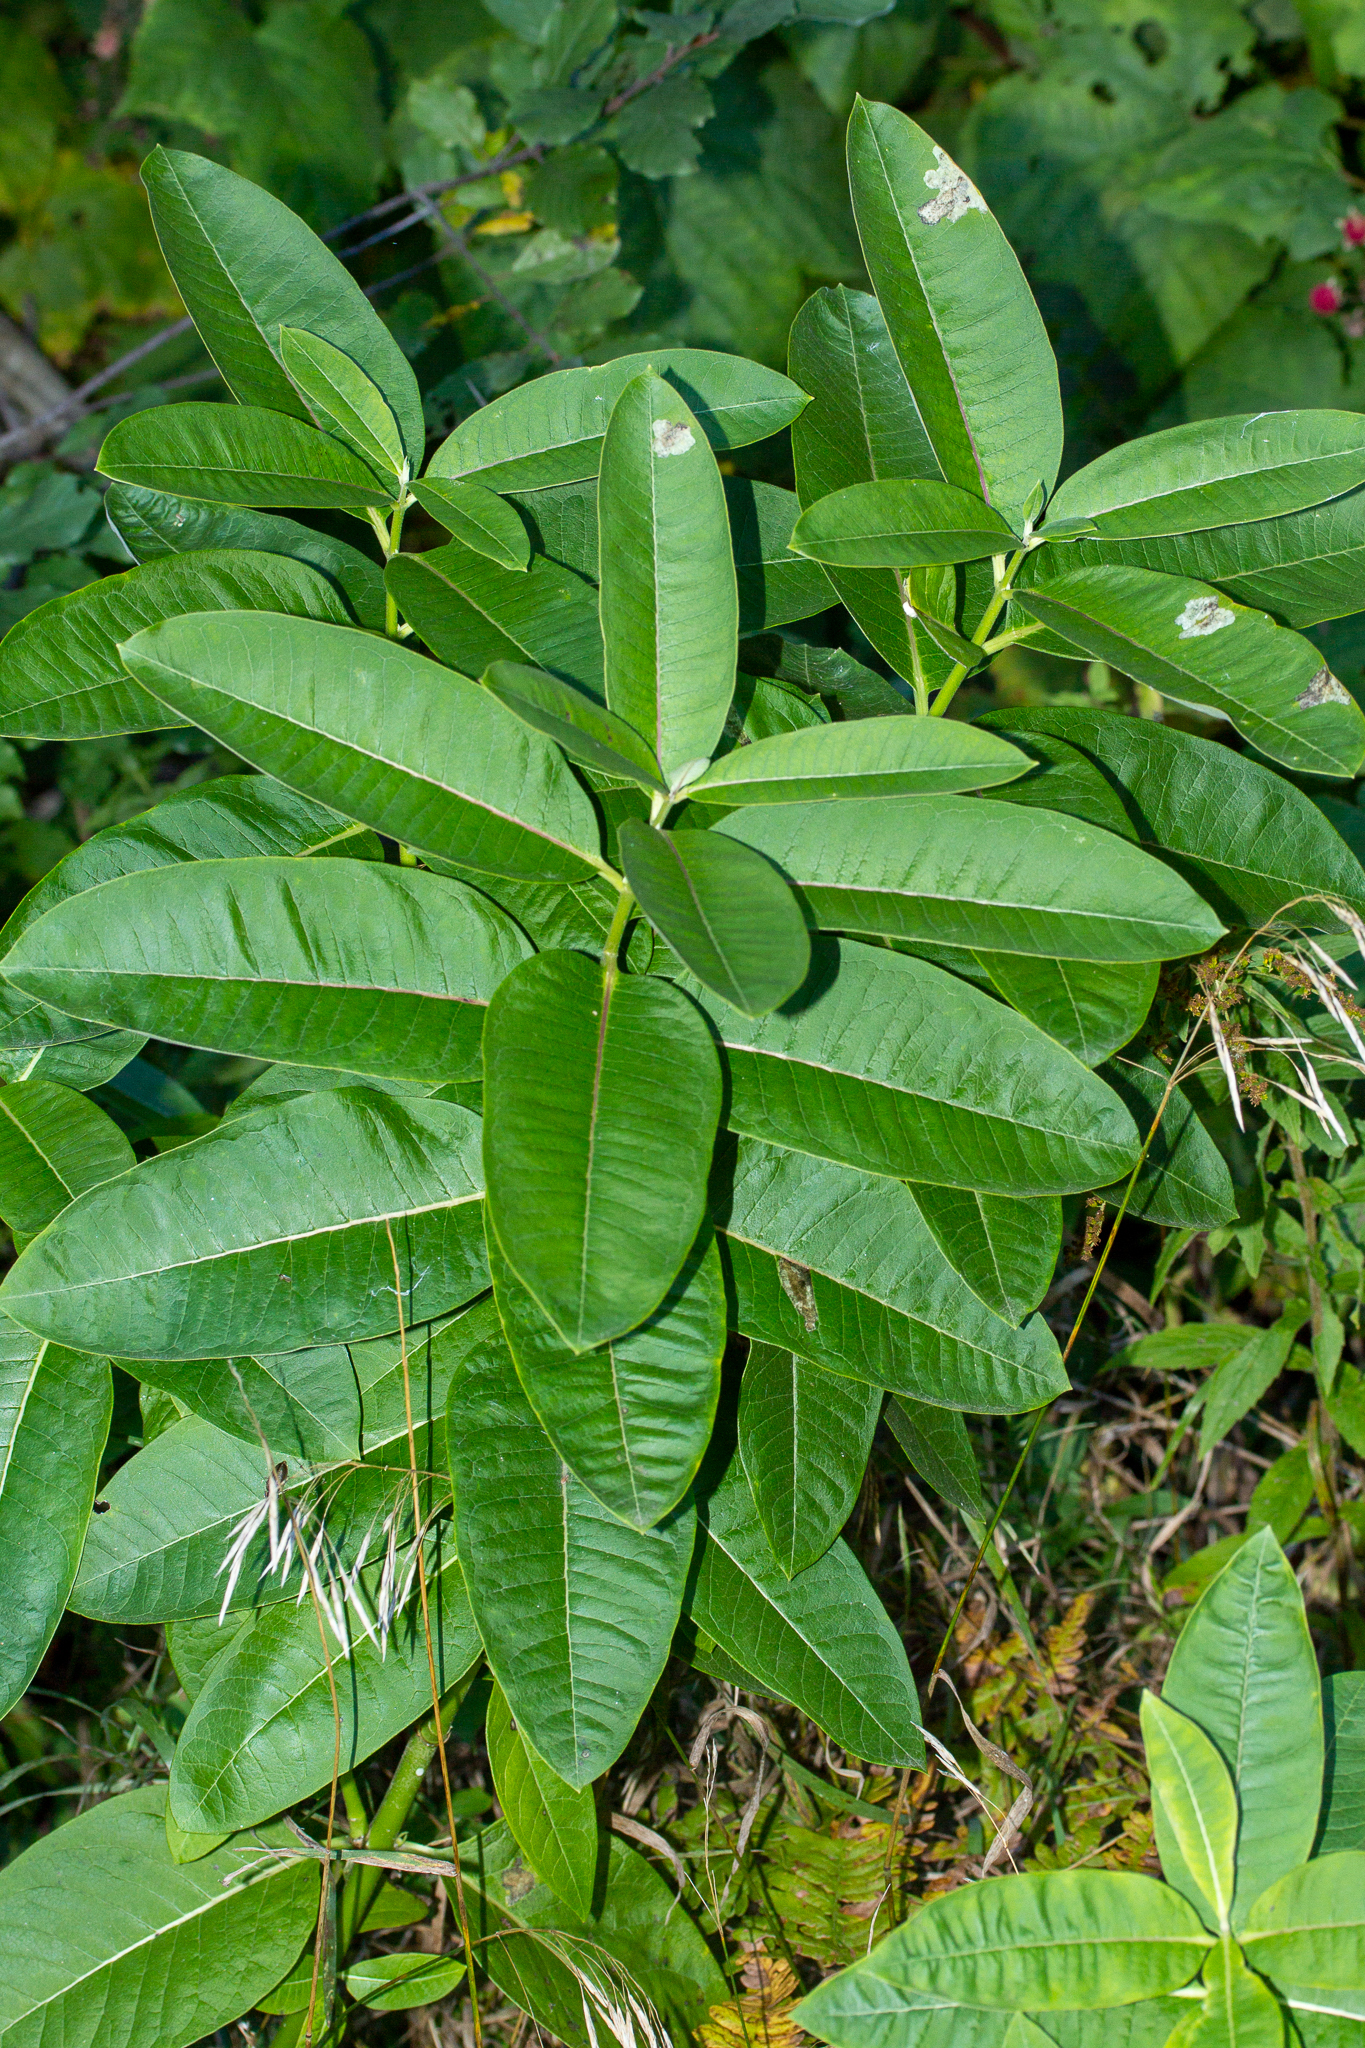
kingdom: Plantae
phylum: Tracheophyta
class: Magnoliopsida
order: Gentianales
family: Apocynaceae
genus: Asclepias
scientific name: Asclepias syriaca
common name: Common milkweed
